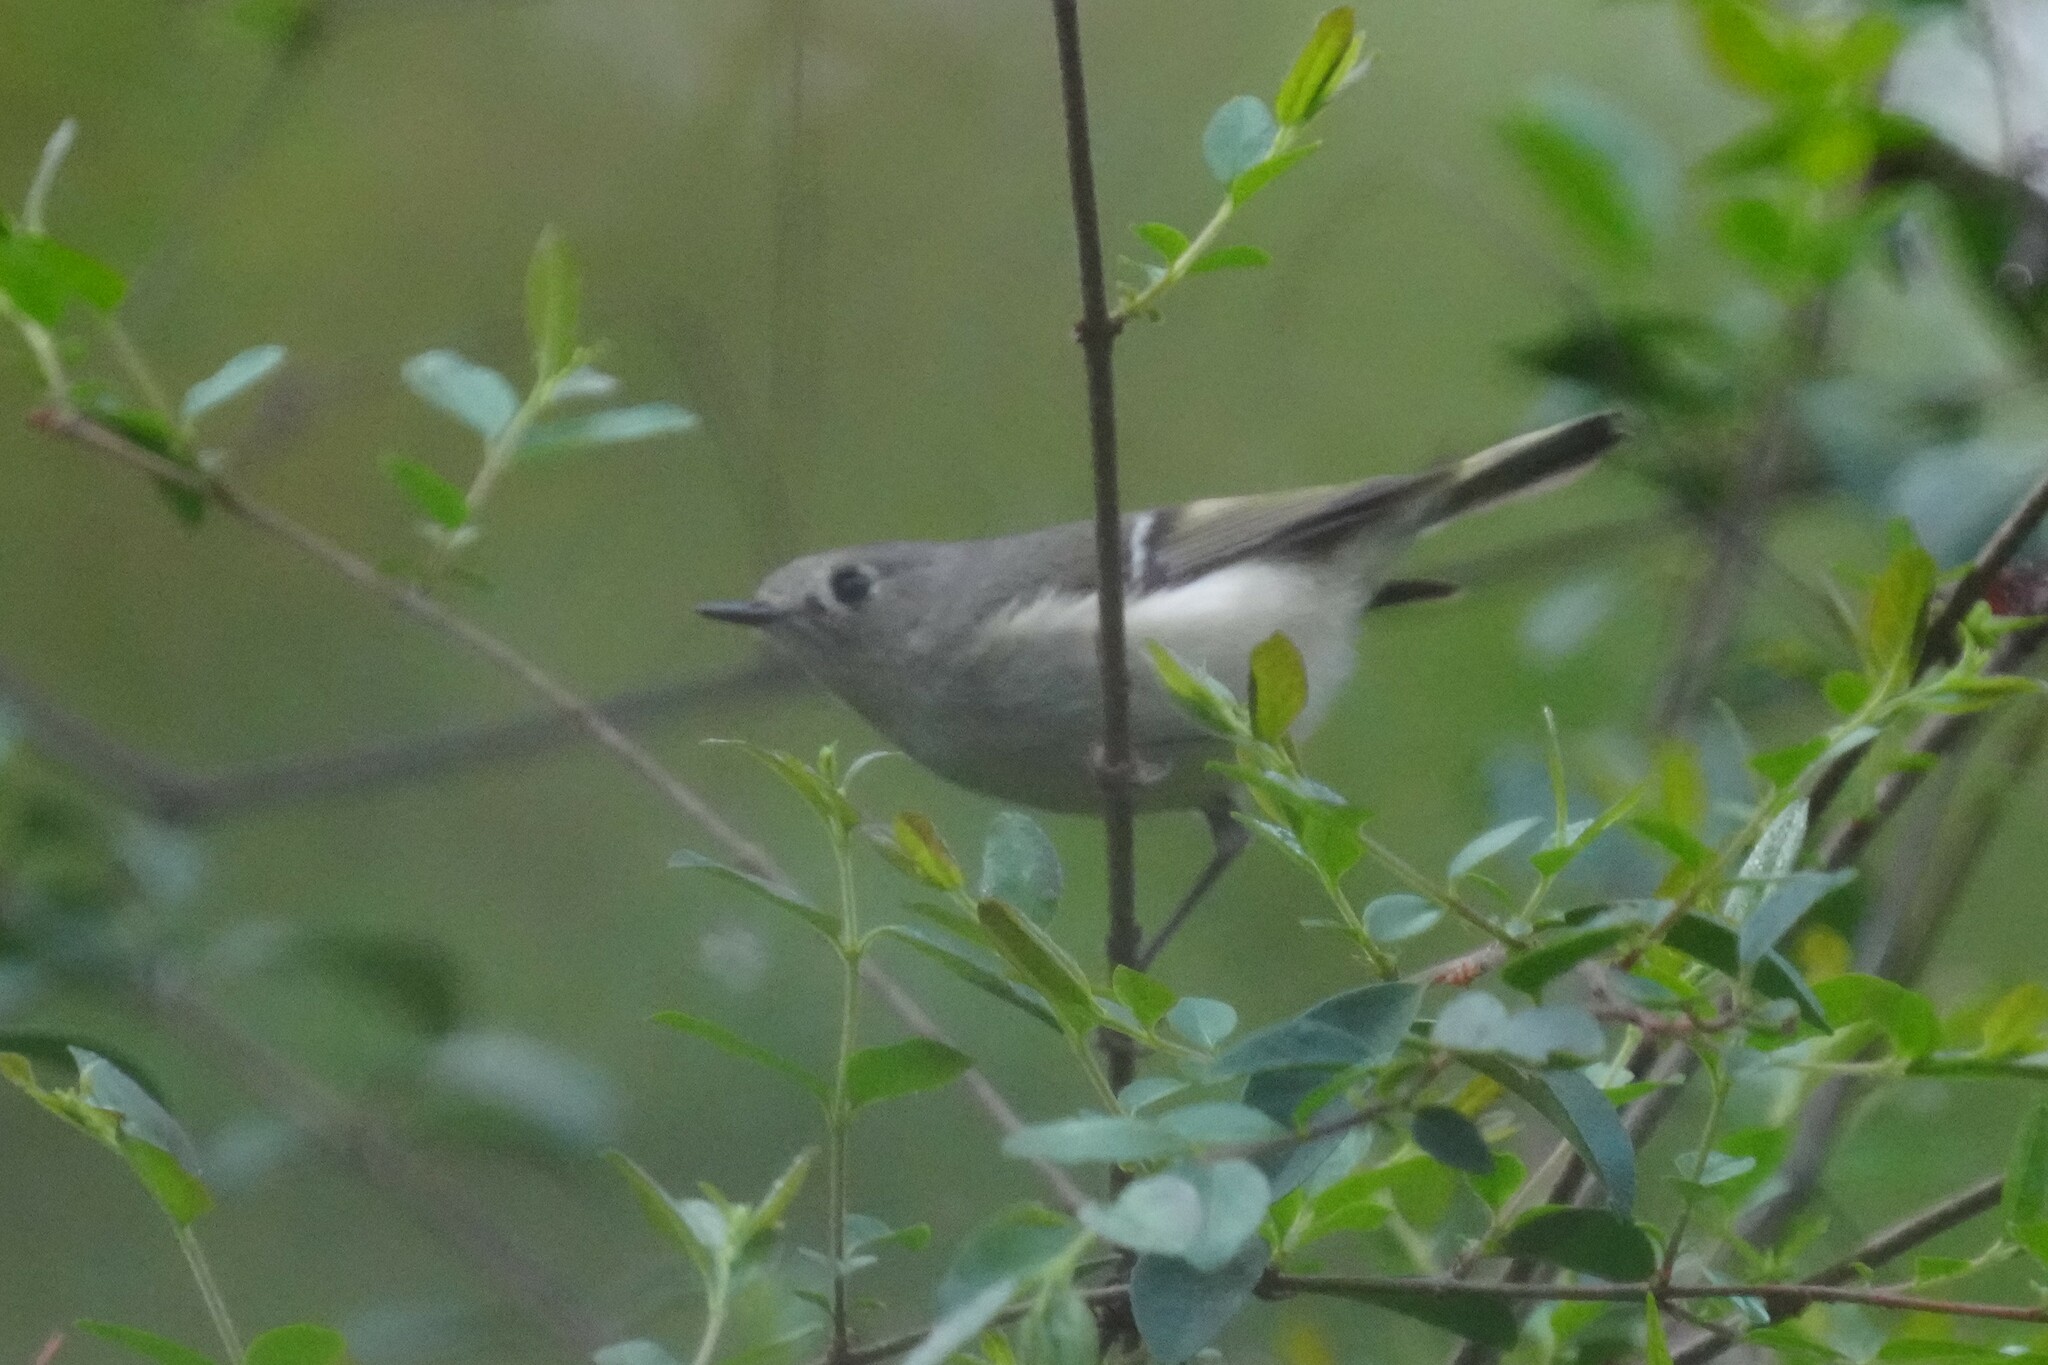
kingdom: Animalia
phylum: Chordata
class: Aves
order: Passeriformes
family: Regulidae
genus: Regulus
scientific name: Regulus calendula
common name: Ruby-crowned kinglet
